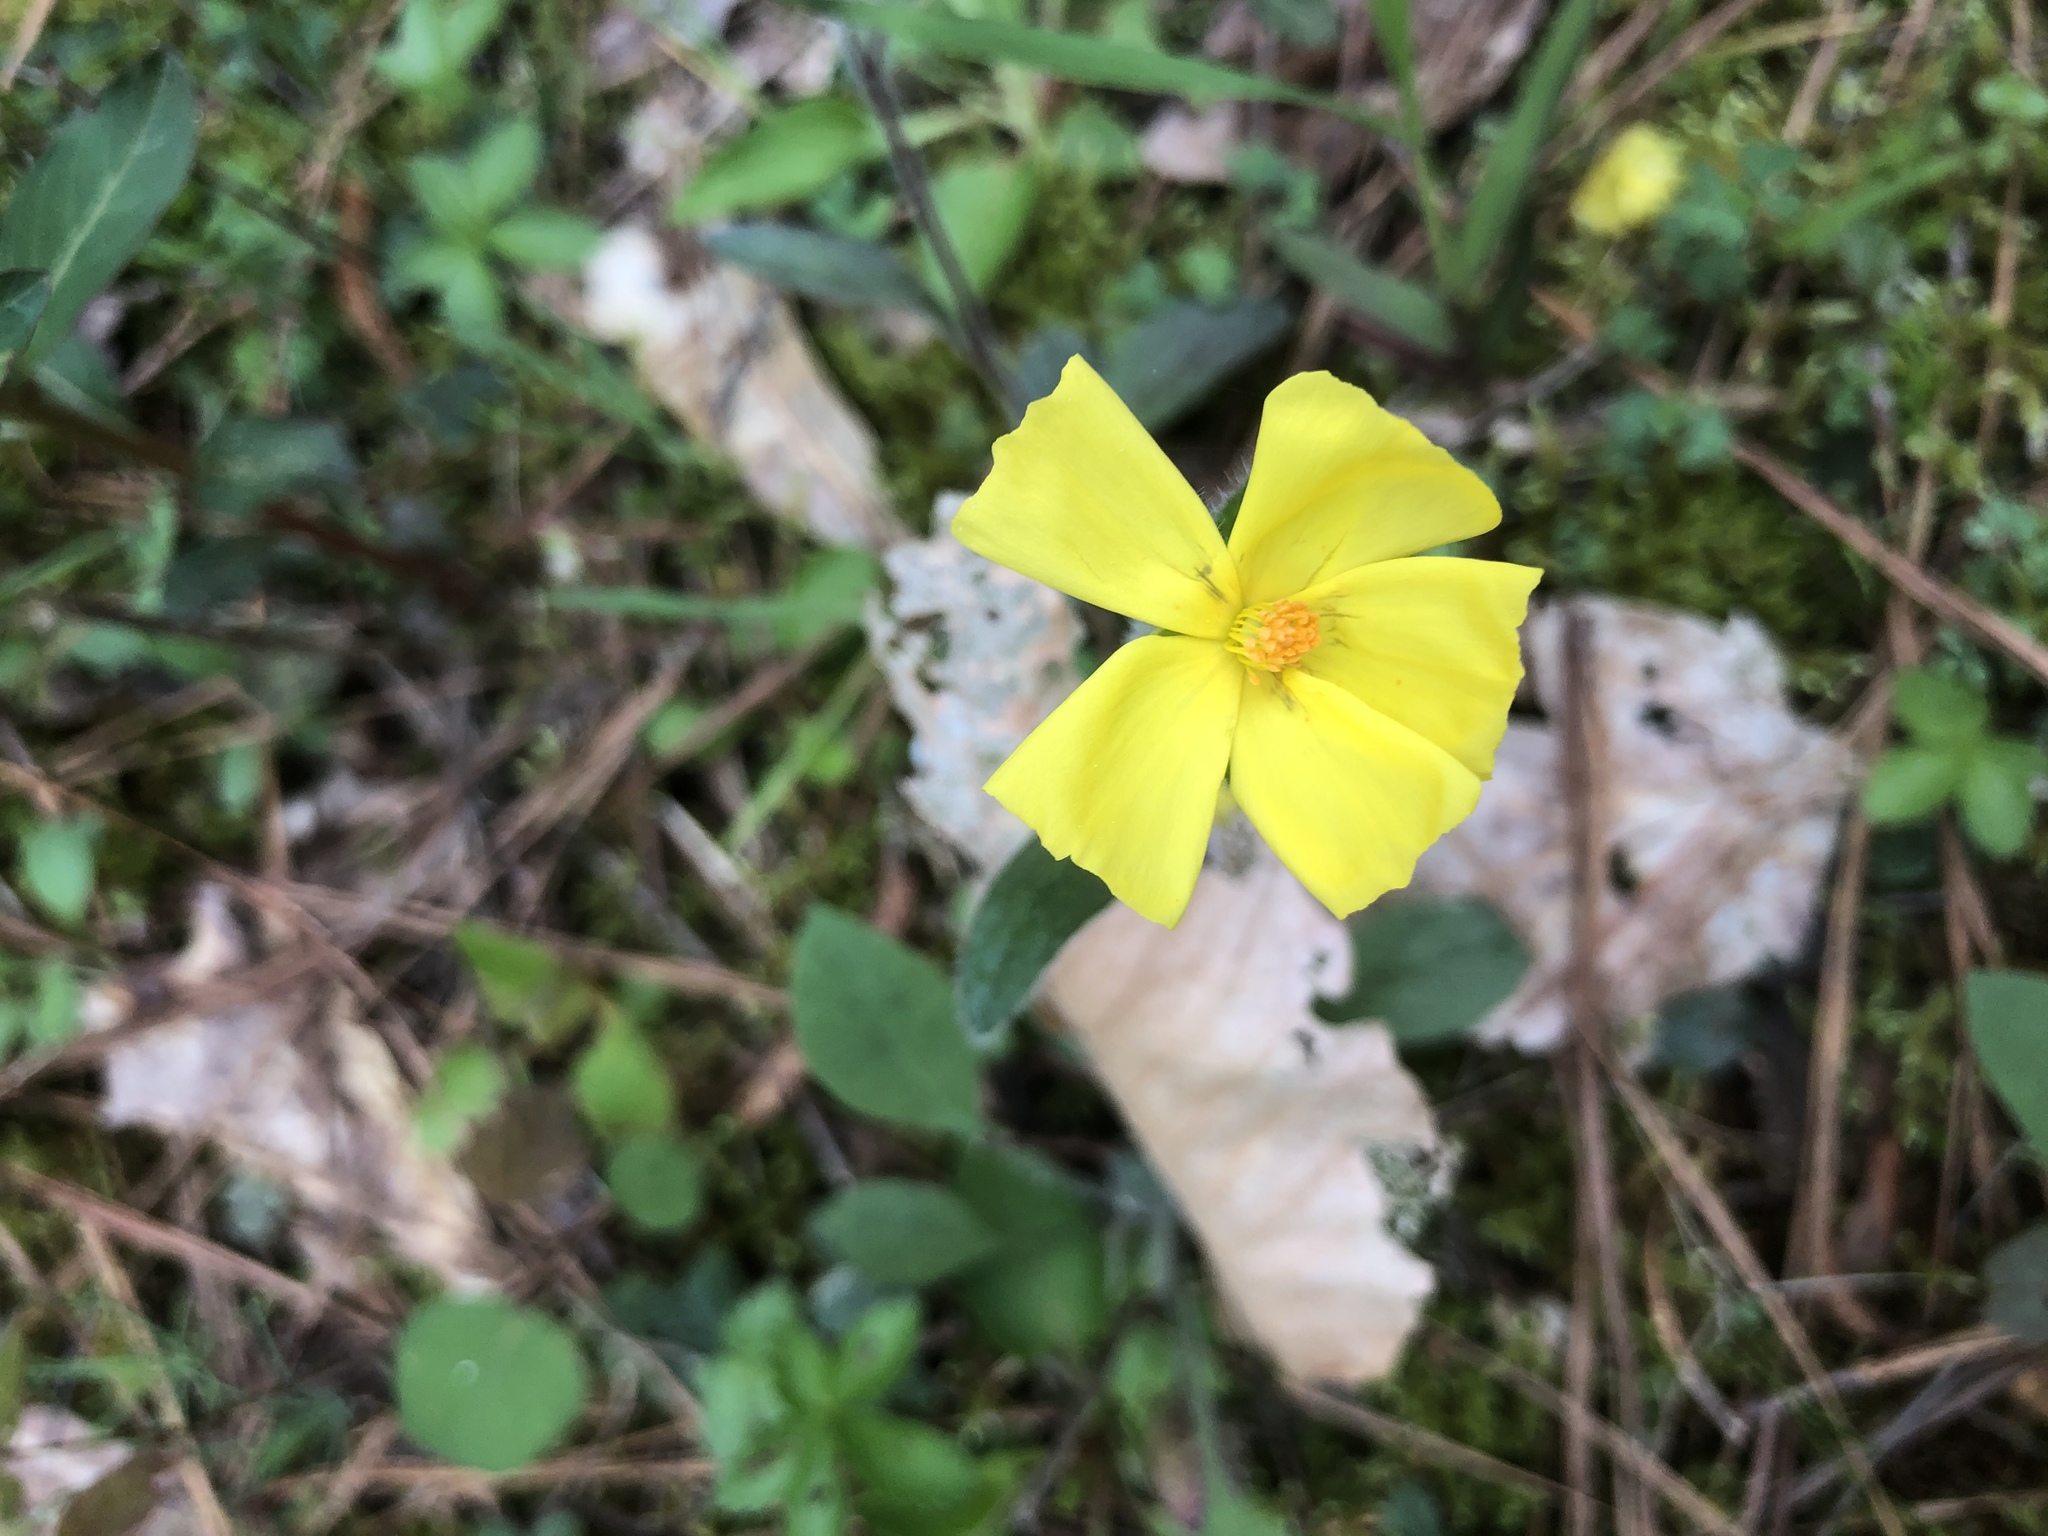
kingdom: Plantae
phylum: Tracheophyta
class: Magnoliopsida
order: Malvales
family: Cistaceae
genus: Crocanthemum
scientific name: Crocanthemum carolinianum
